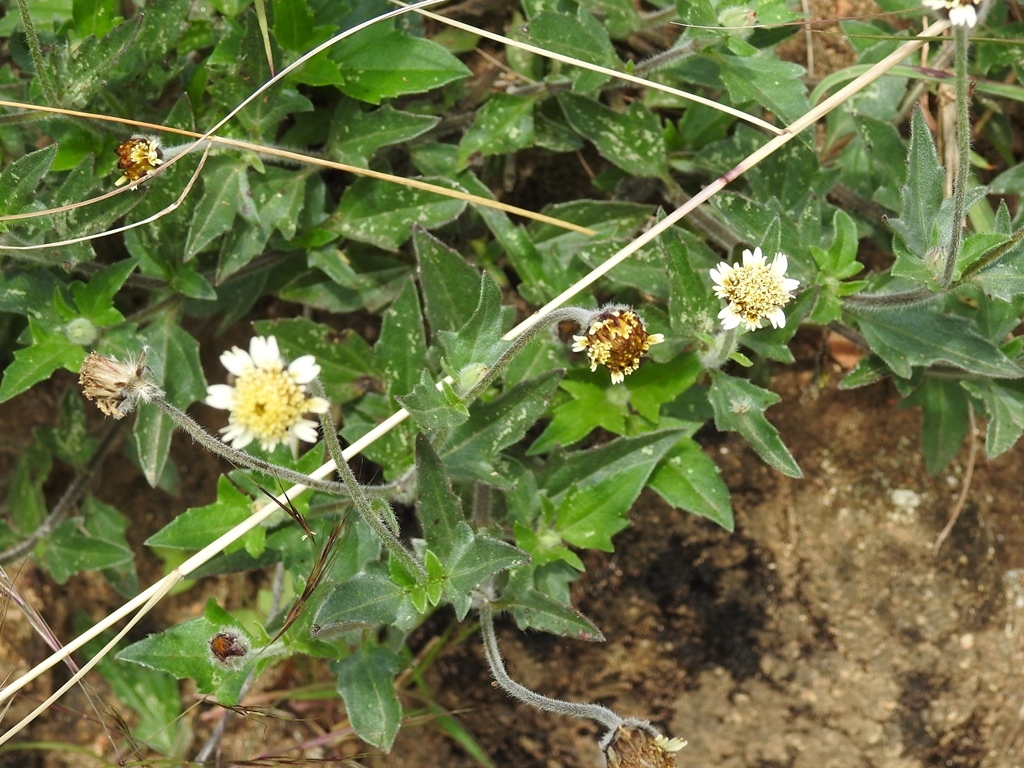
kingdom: Plantae
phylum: Tracheophyta
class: Magnoliopsida
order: Asterales
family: Asteraceae
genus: Tridax
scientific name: Tridax procumbens
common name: Coatbuttons
